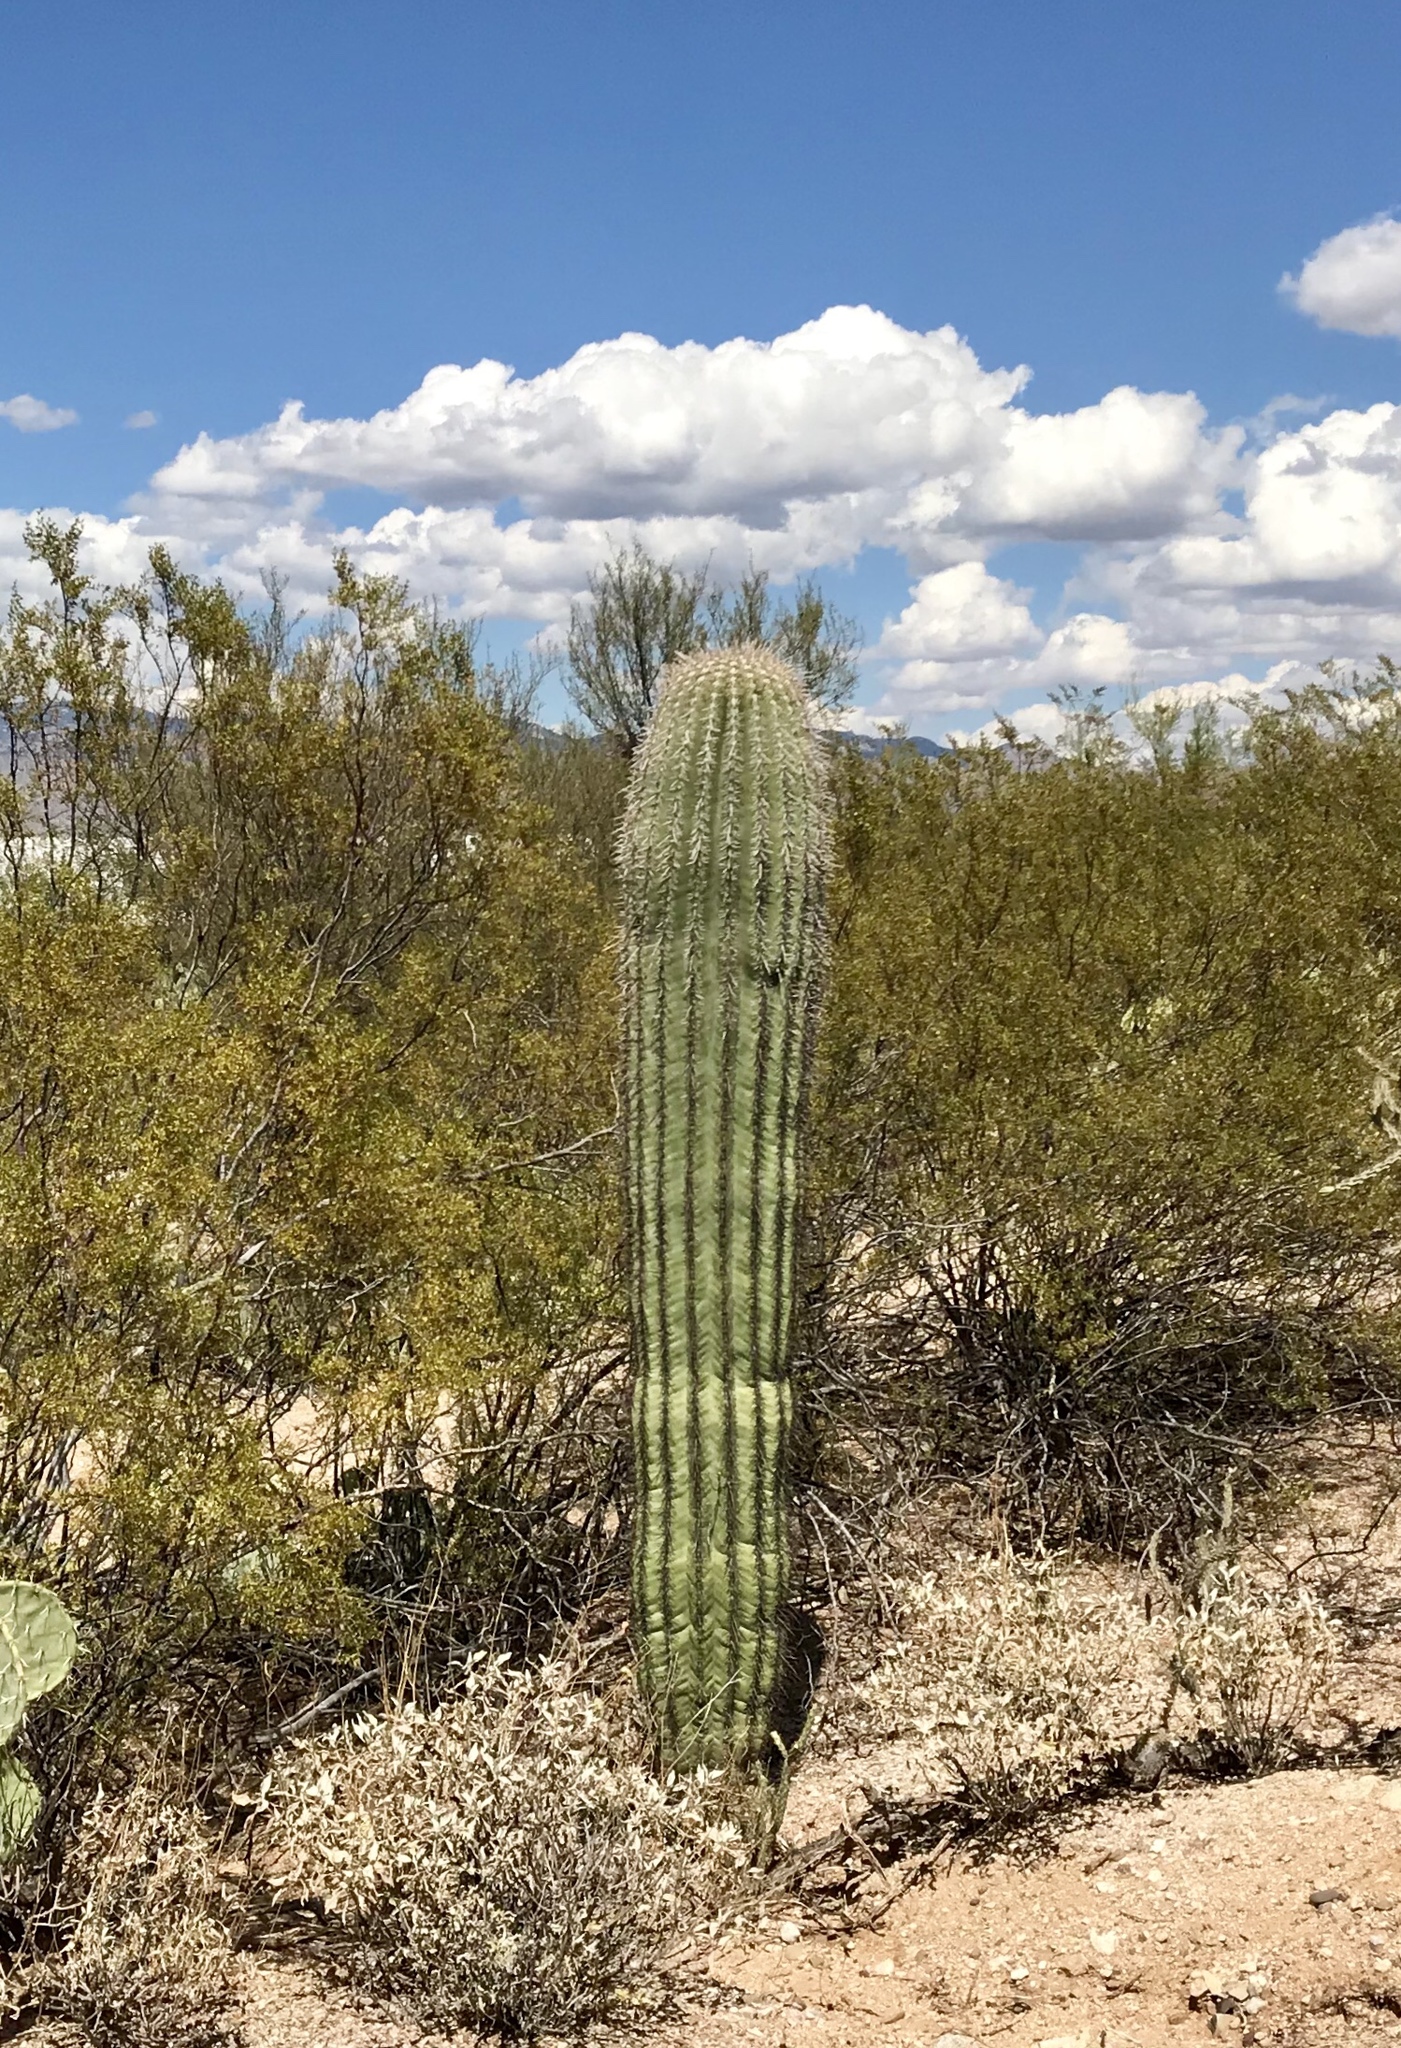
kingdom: Plantae
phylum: Tracheophyta
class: Magnoliopsida
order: Caryophyllales
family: Cactaceae
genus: Carnegiea
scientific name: Carnegiea gigantea
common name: Saguaro
